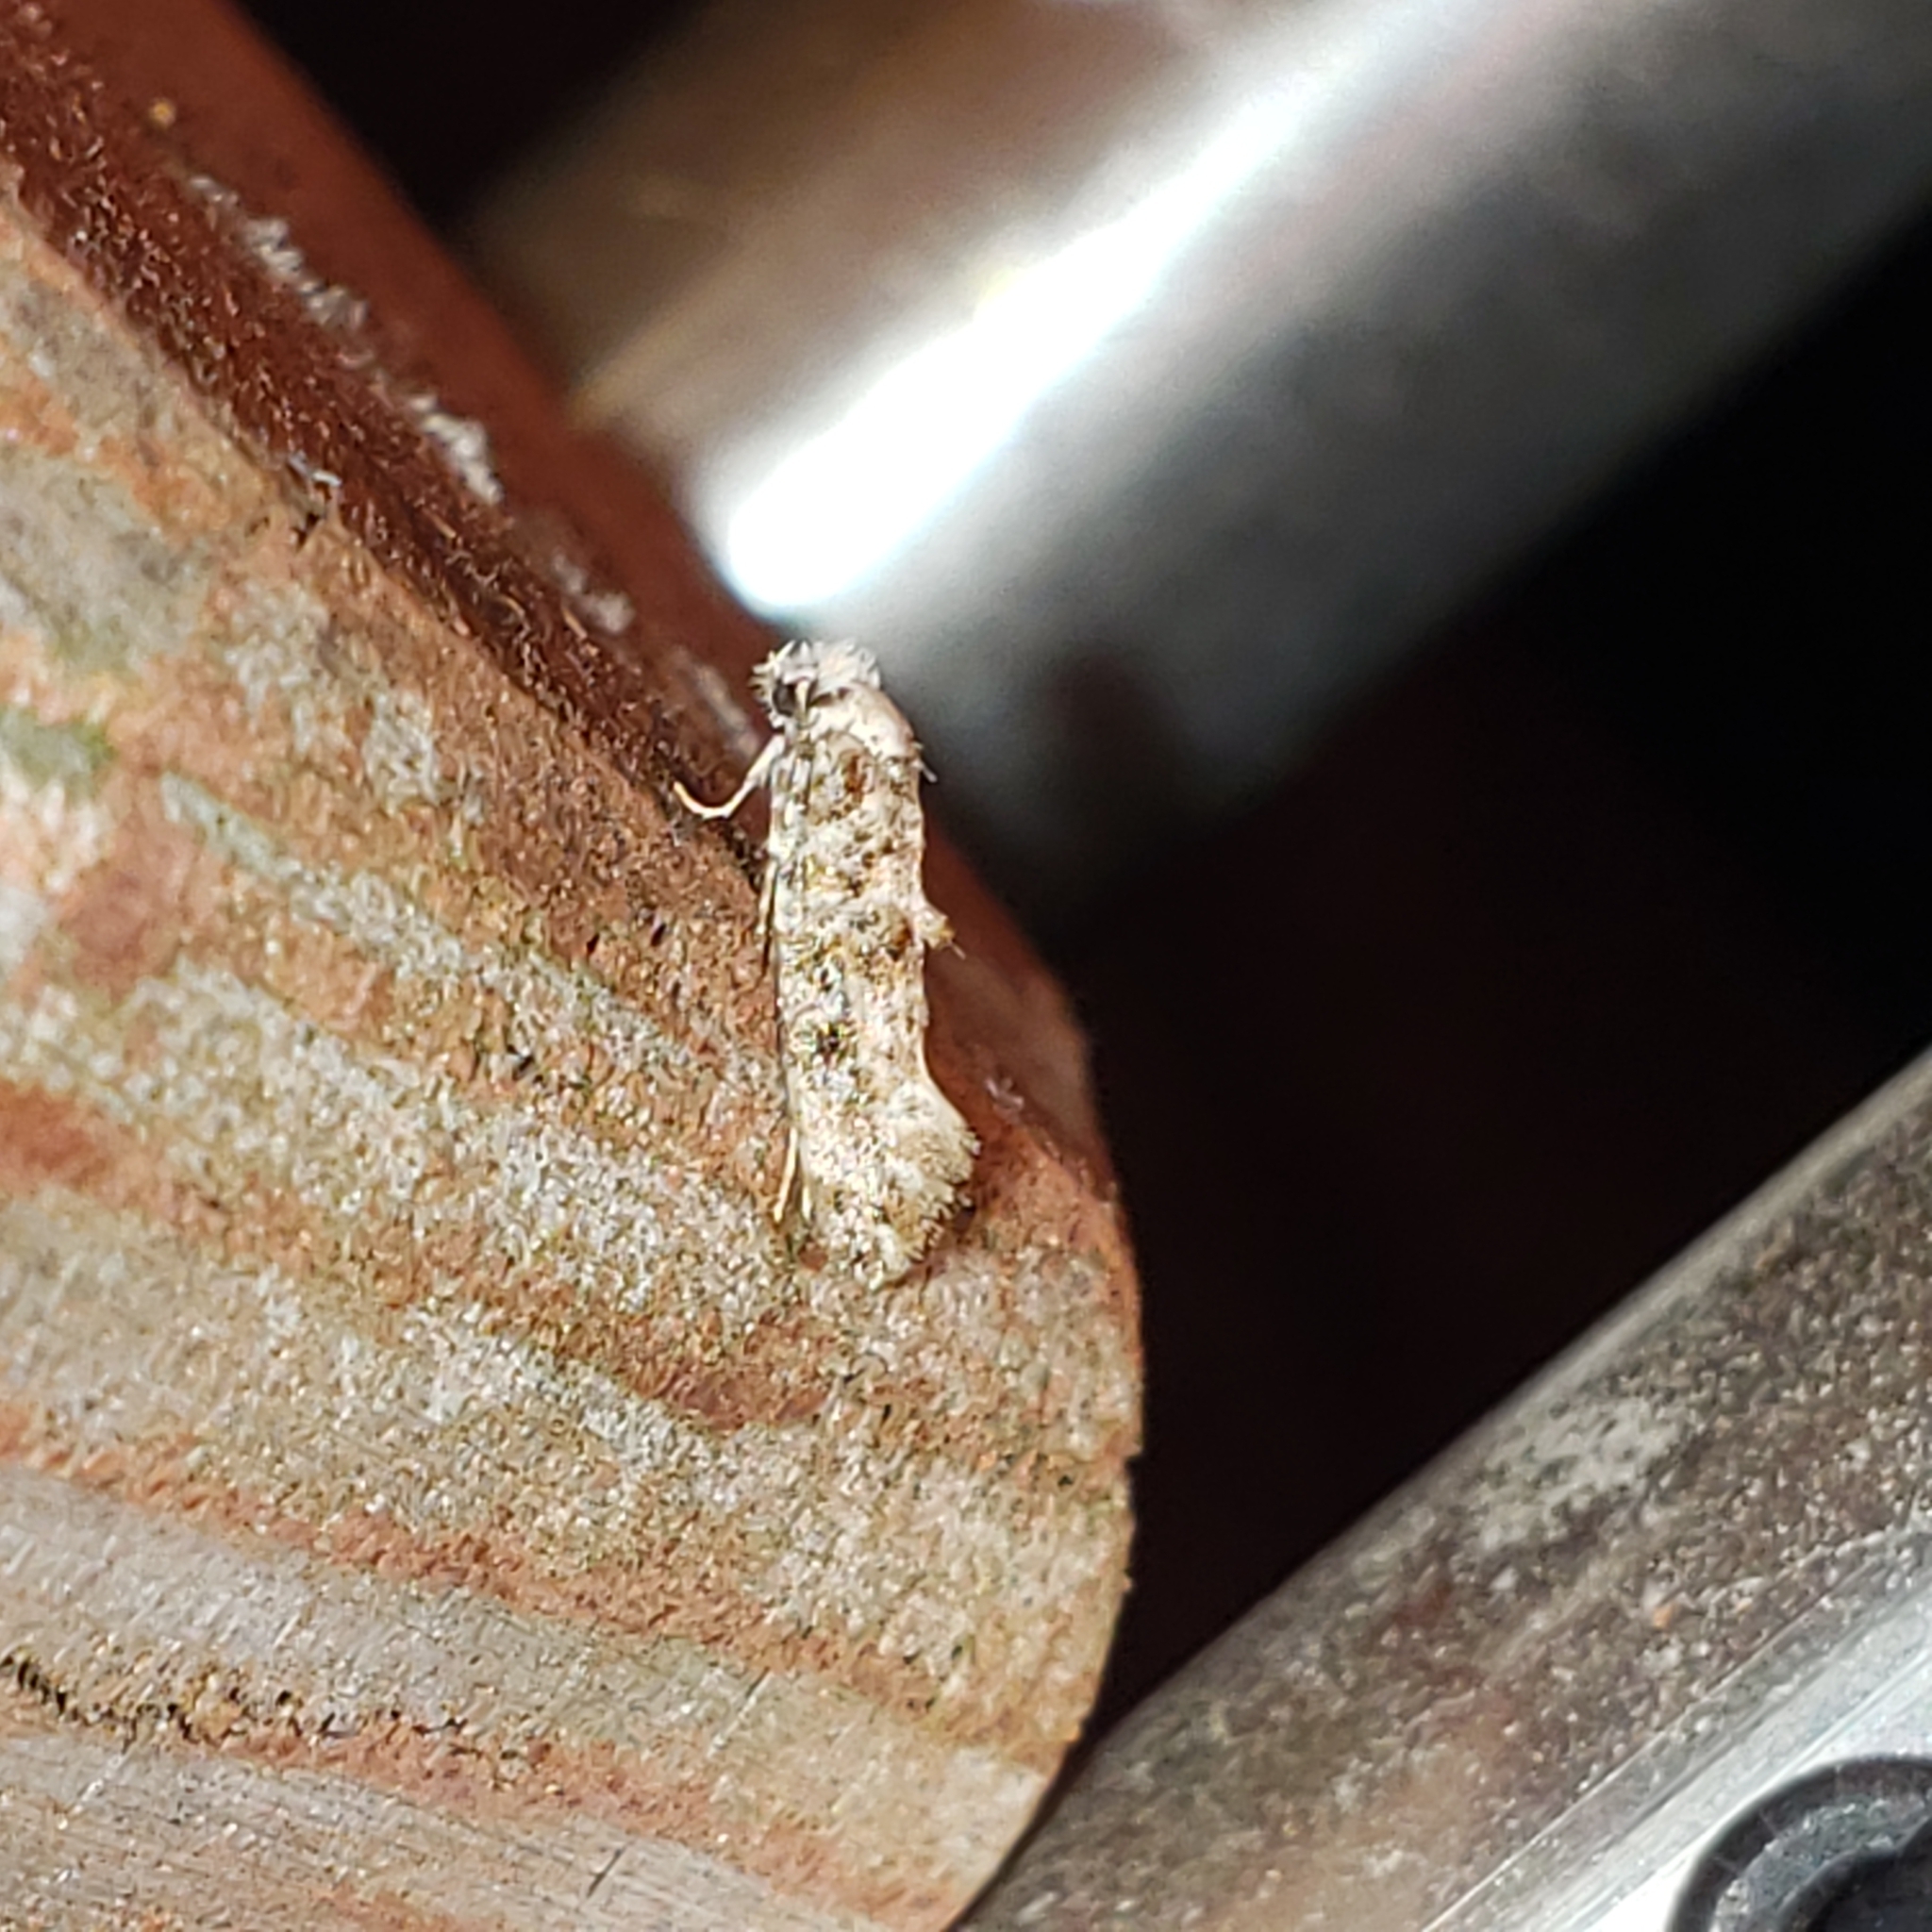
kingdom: Animalia
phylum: Arthropoda
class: Insecta
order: Lepidoptera
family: Tineidae
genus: Xylesthia
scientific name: Xylesthia pruniramiella
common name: Clemens' bark moth
